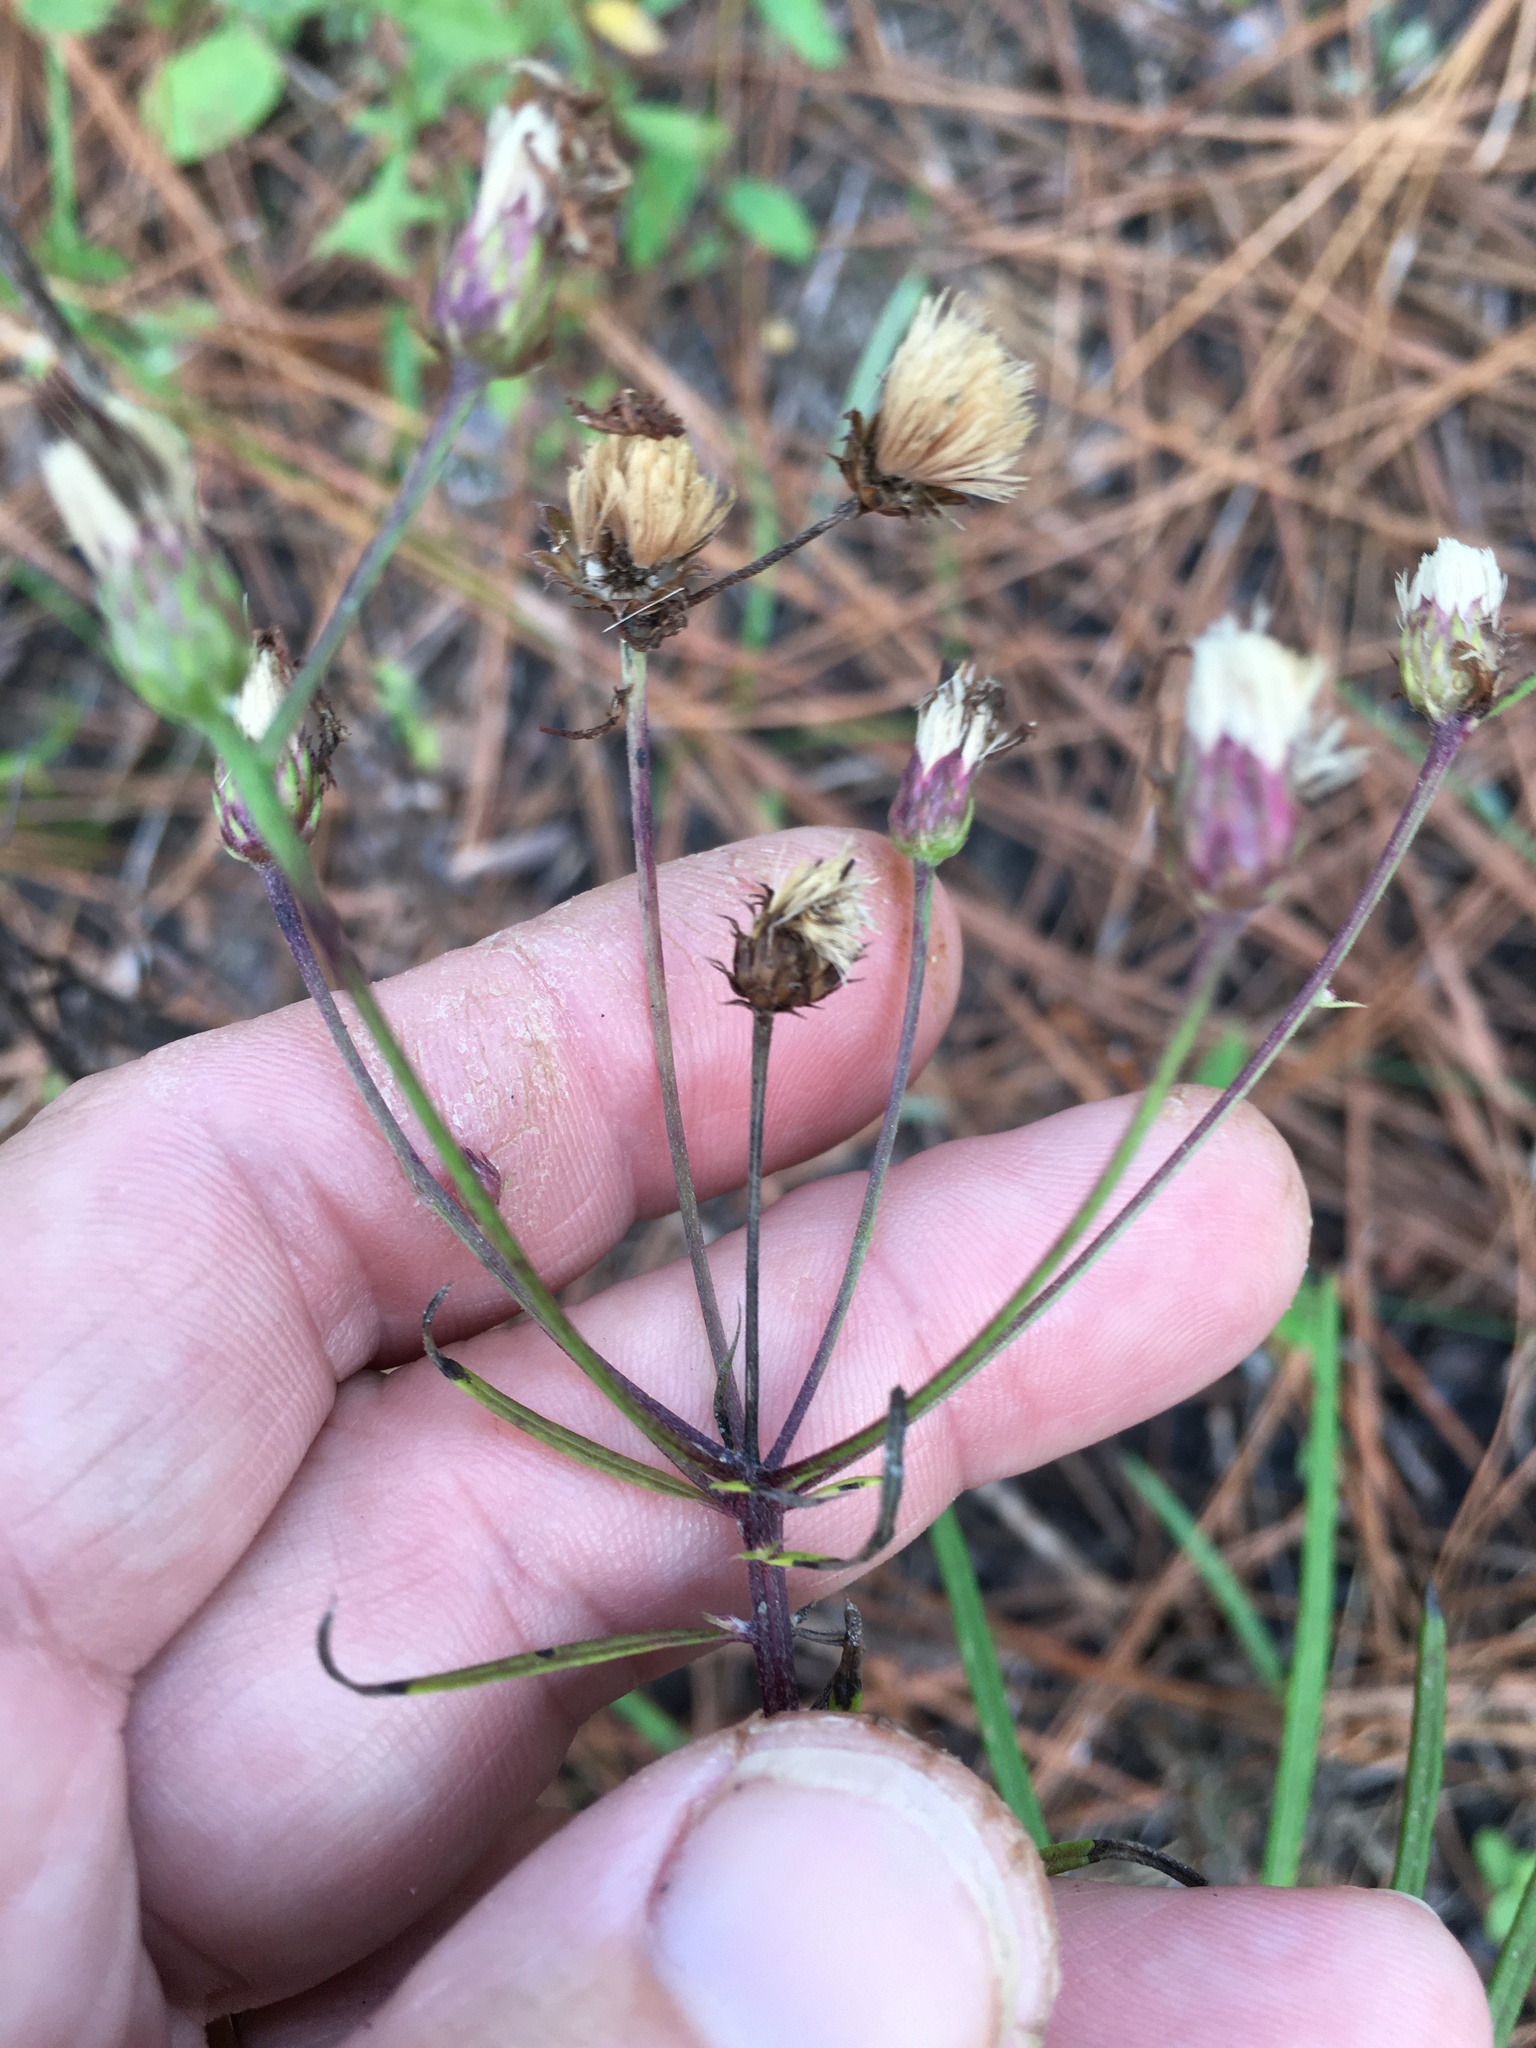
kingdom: Plantae
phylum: Tracheophyta
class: Magnoliopsida
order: Asterales
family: Asteraceae
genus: Vernonia
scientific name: Vernonia angustifolia
